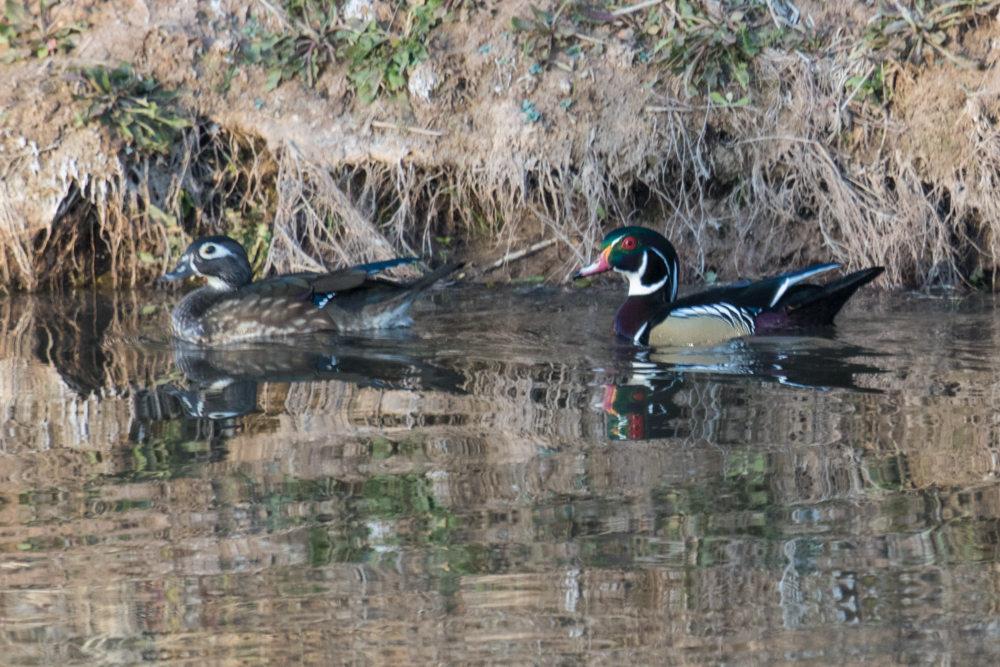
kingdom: Animalia
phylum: Chordata
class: Aves
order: Anseriformes
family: Anatidae
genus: Aix
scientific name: Aix sponsa
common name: Wood duck
